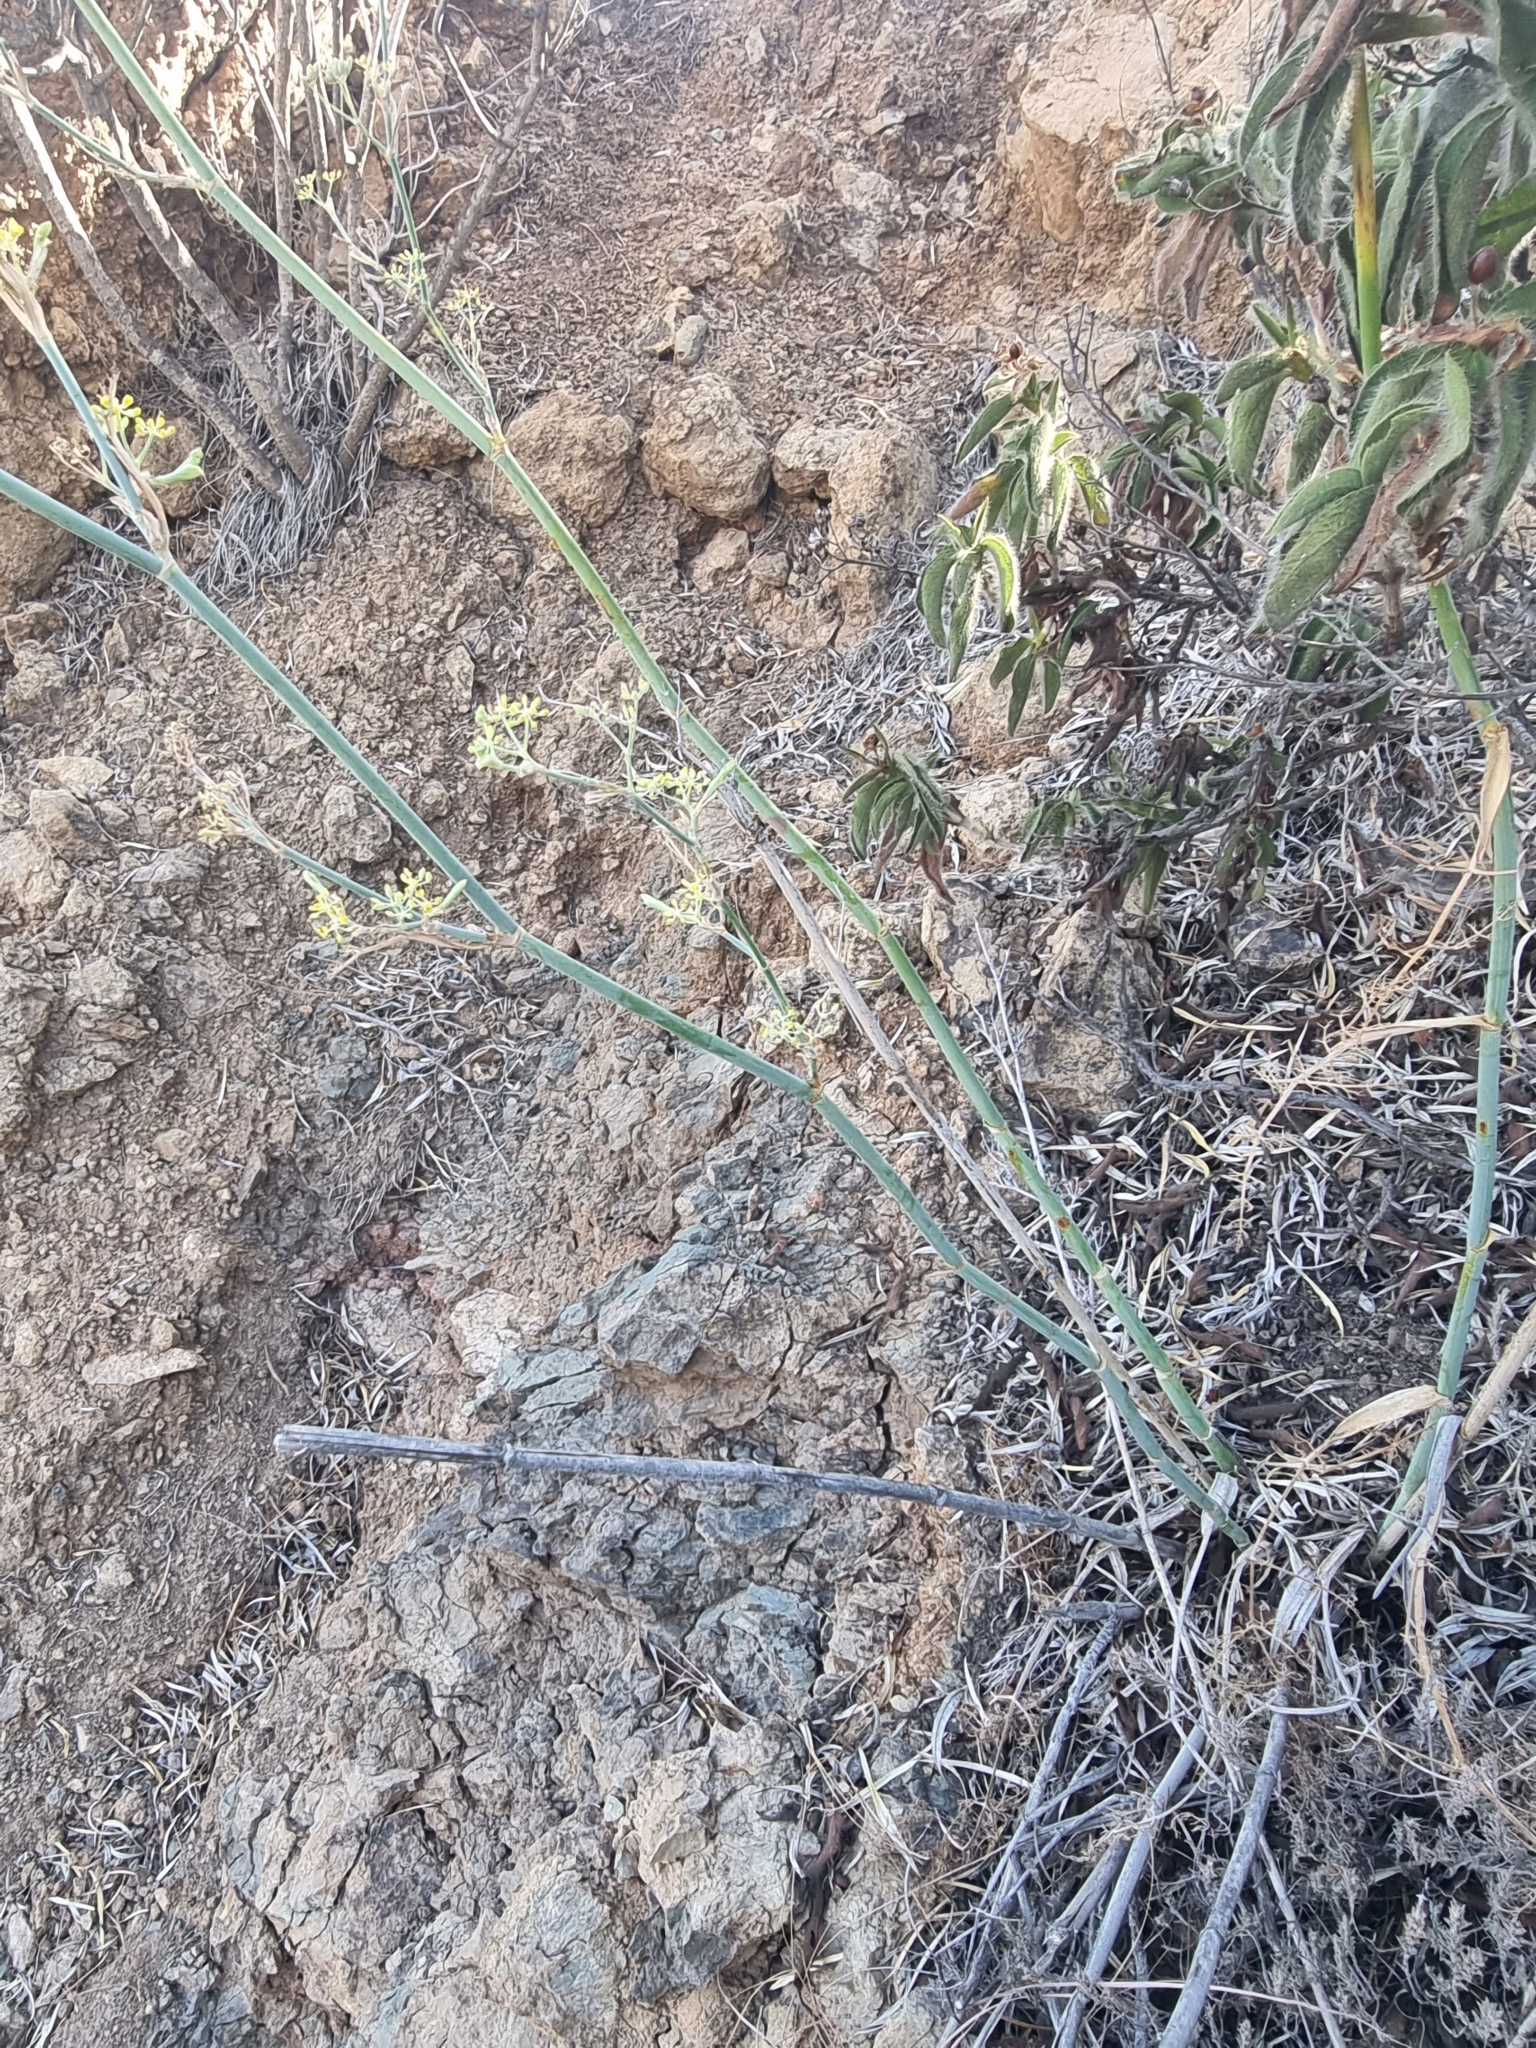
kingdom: Plantae
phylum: Tracheophyta
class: Magnoliopsida
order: Apiales
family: Apiaceae
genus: Foeniculum
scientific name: Foeniculum vulgare
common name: Fennel
